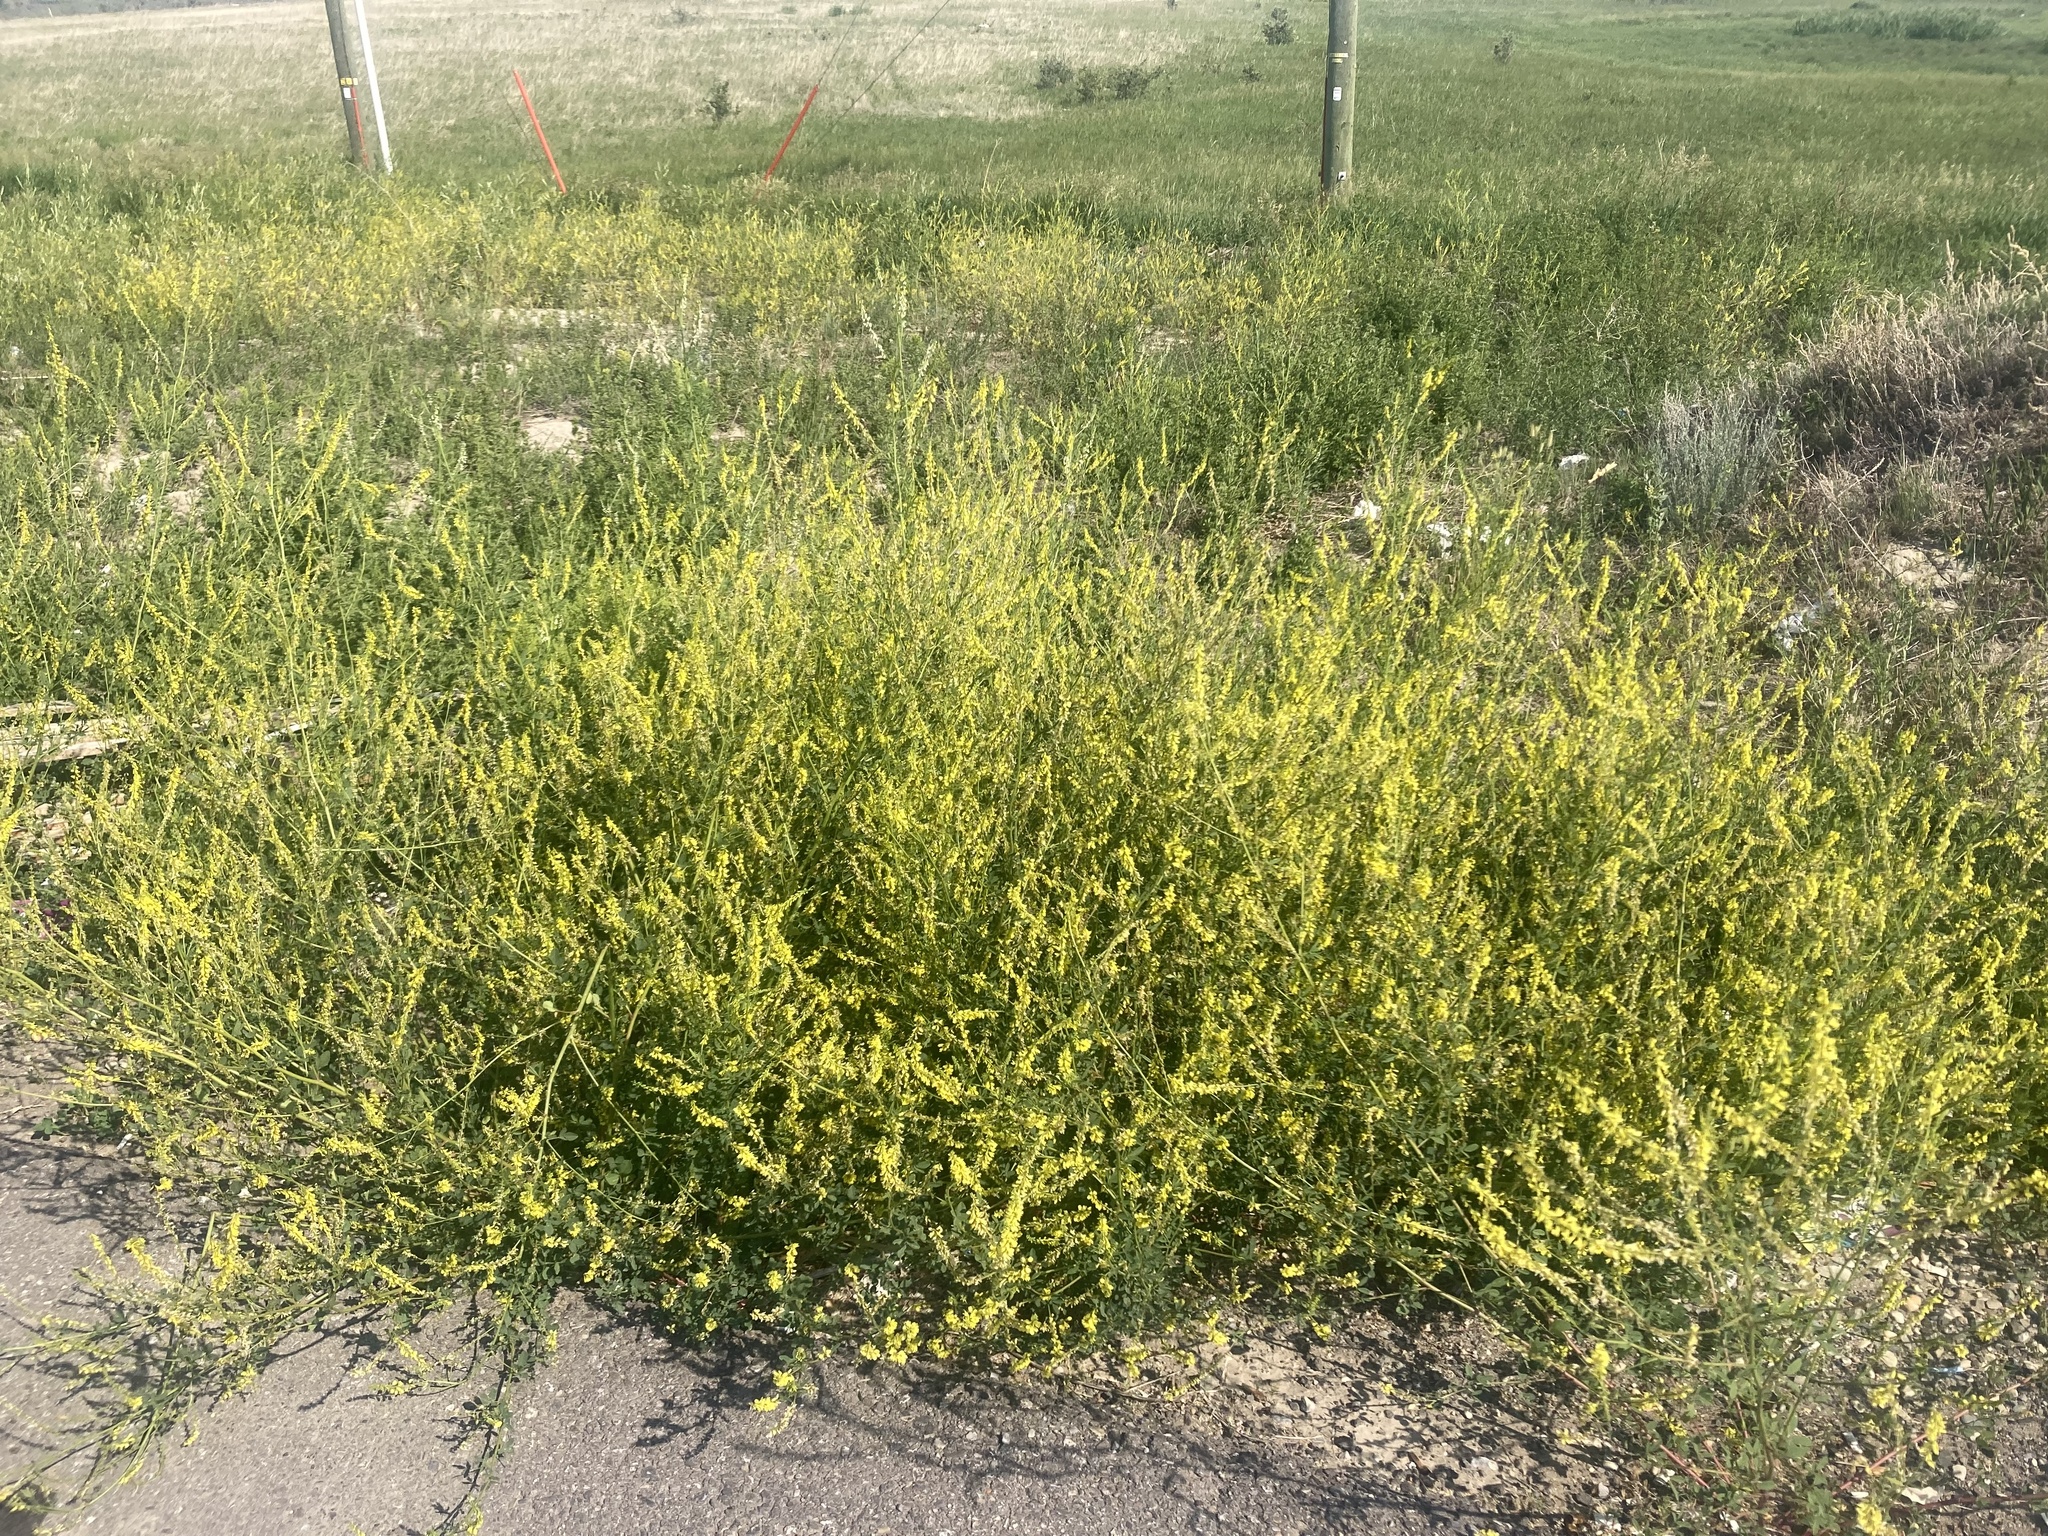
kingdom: Plantae
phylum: Tracheophyta
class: Magnoliopsida
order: Fabales
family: Fabaceae
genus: Melilotus
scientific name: Melilotus officinalis
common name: Sweetclover
